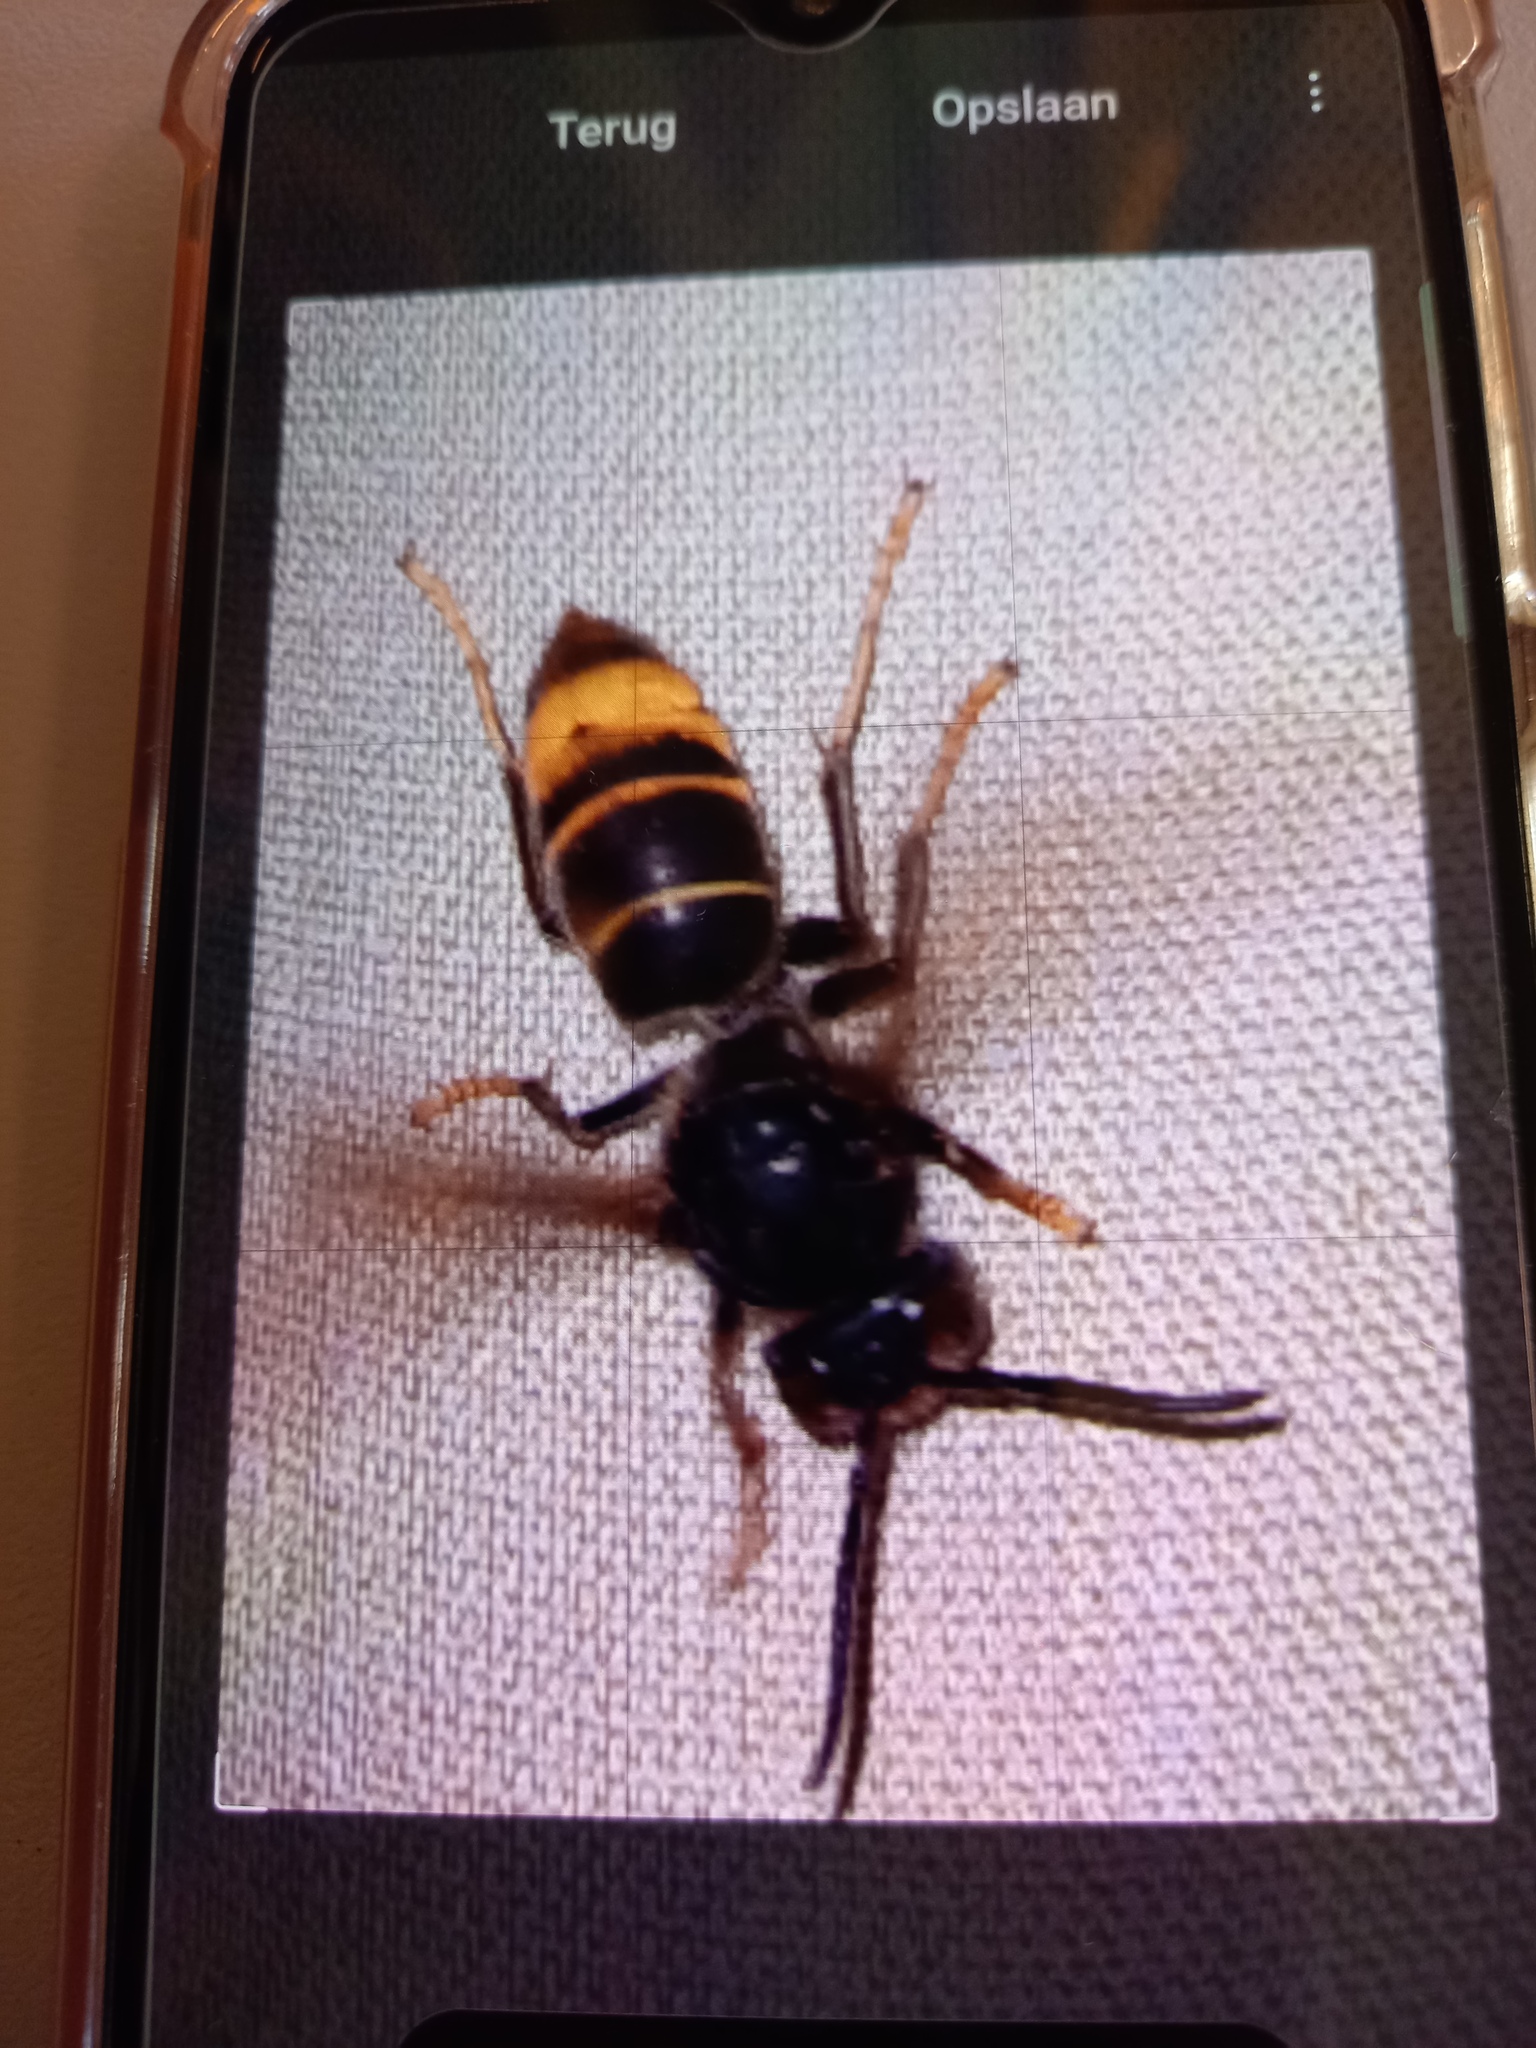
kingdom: Animalia
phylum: Arthropoda
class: Insecta
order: Hymenoptera
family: Vespidae
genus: Vespa
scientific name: Vespa velutina
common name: Asian hornet
